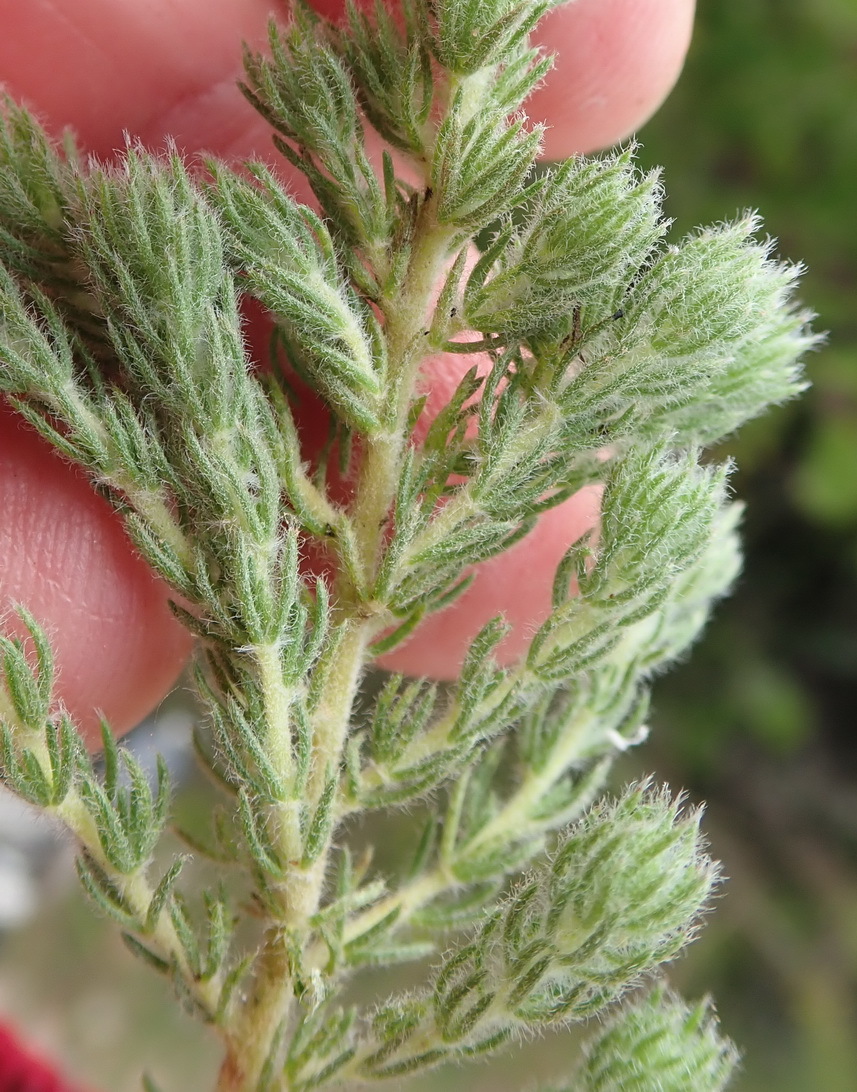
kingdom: Plantae
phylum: Tracheophyta
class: Magnoliopsida
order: Fabales
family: Fabaceae
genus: Aspalathus
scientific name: Aspalathus cerrhantha
